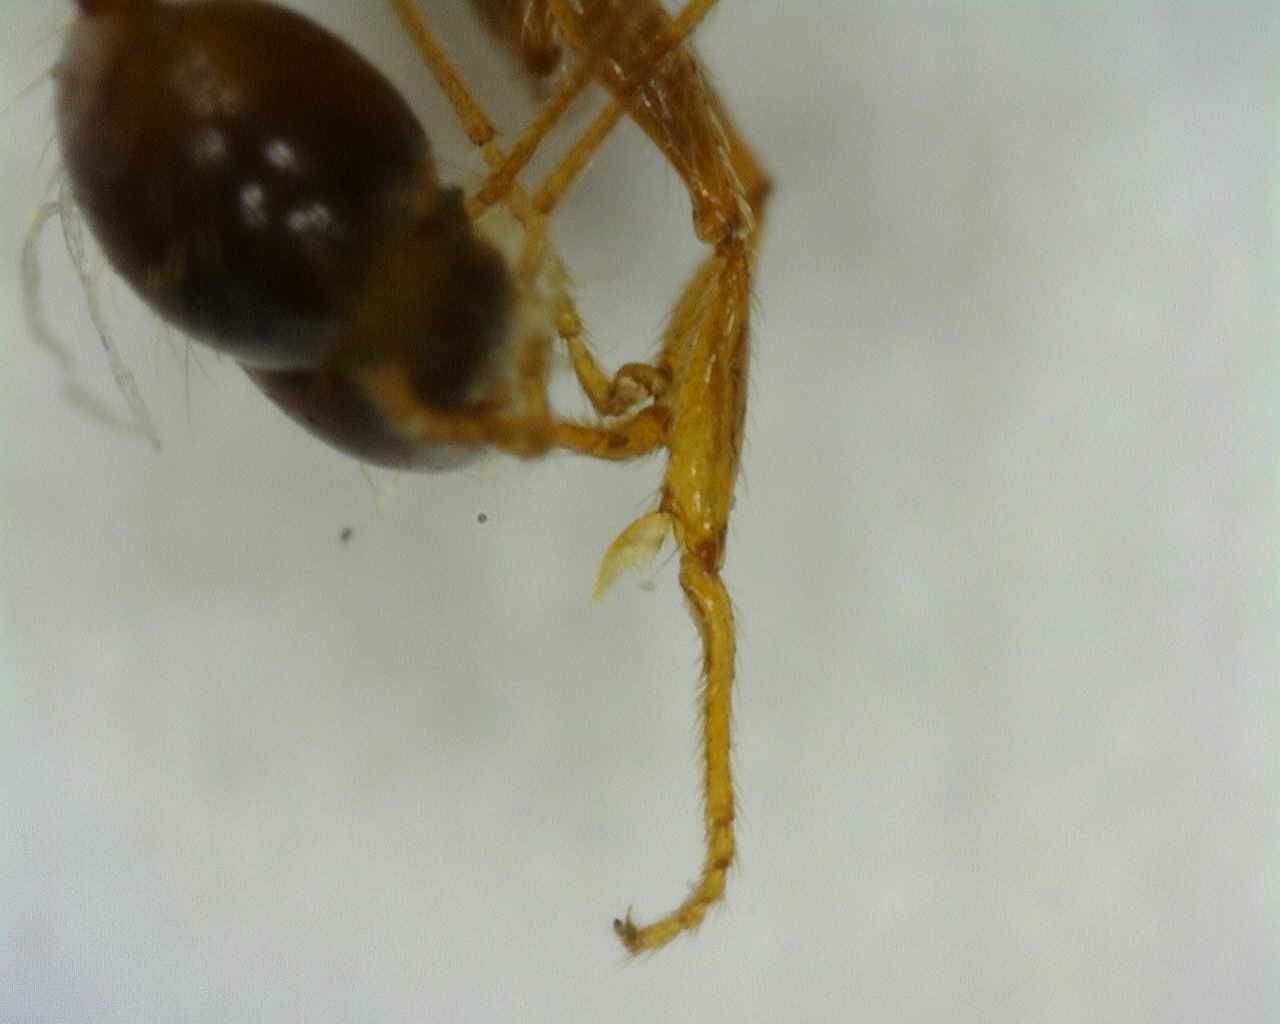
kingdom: Animalia
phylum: Arthropoda
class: Insecta
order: Hymenoptera
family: Formicidae
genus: Pheidole
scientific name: Pheidole pallidula
